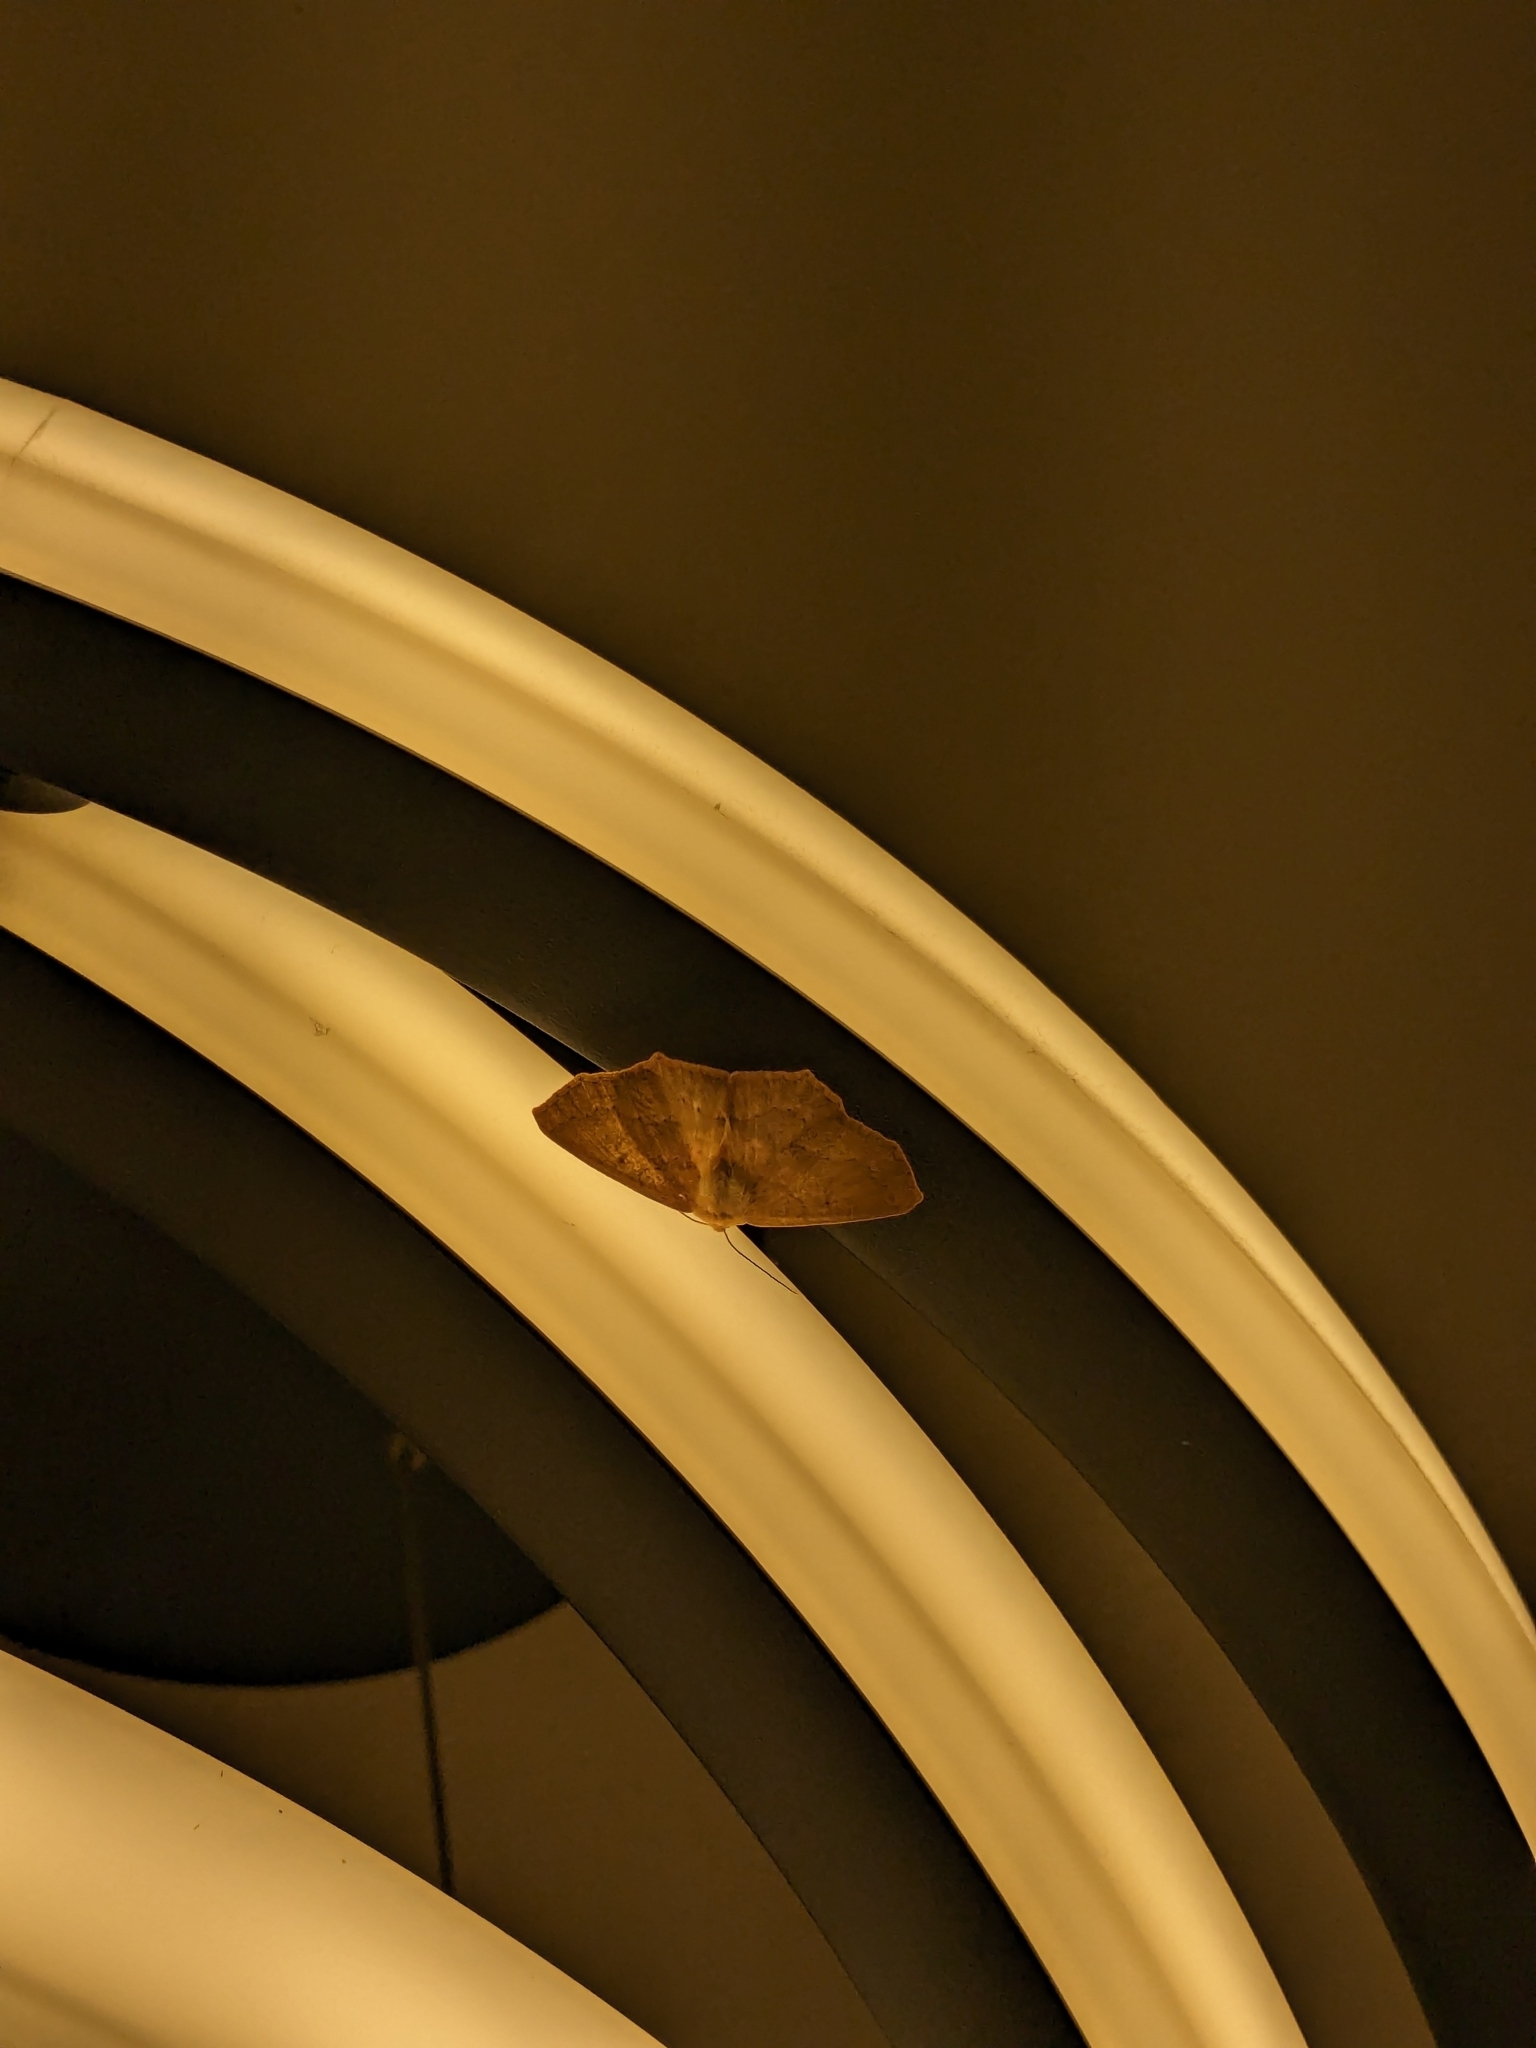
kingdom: Animalia
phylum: Arthropoda
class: Insecta
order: Lepidoptera
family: Geometridae
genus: Sabulodes
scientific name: Sabulodes aegrotata
